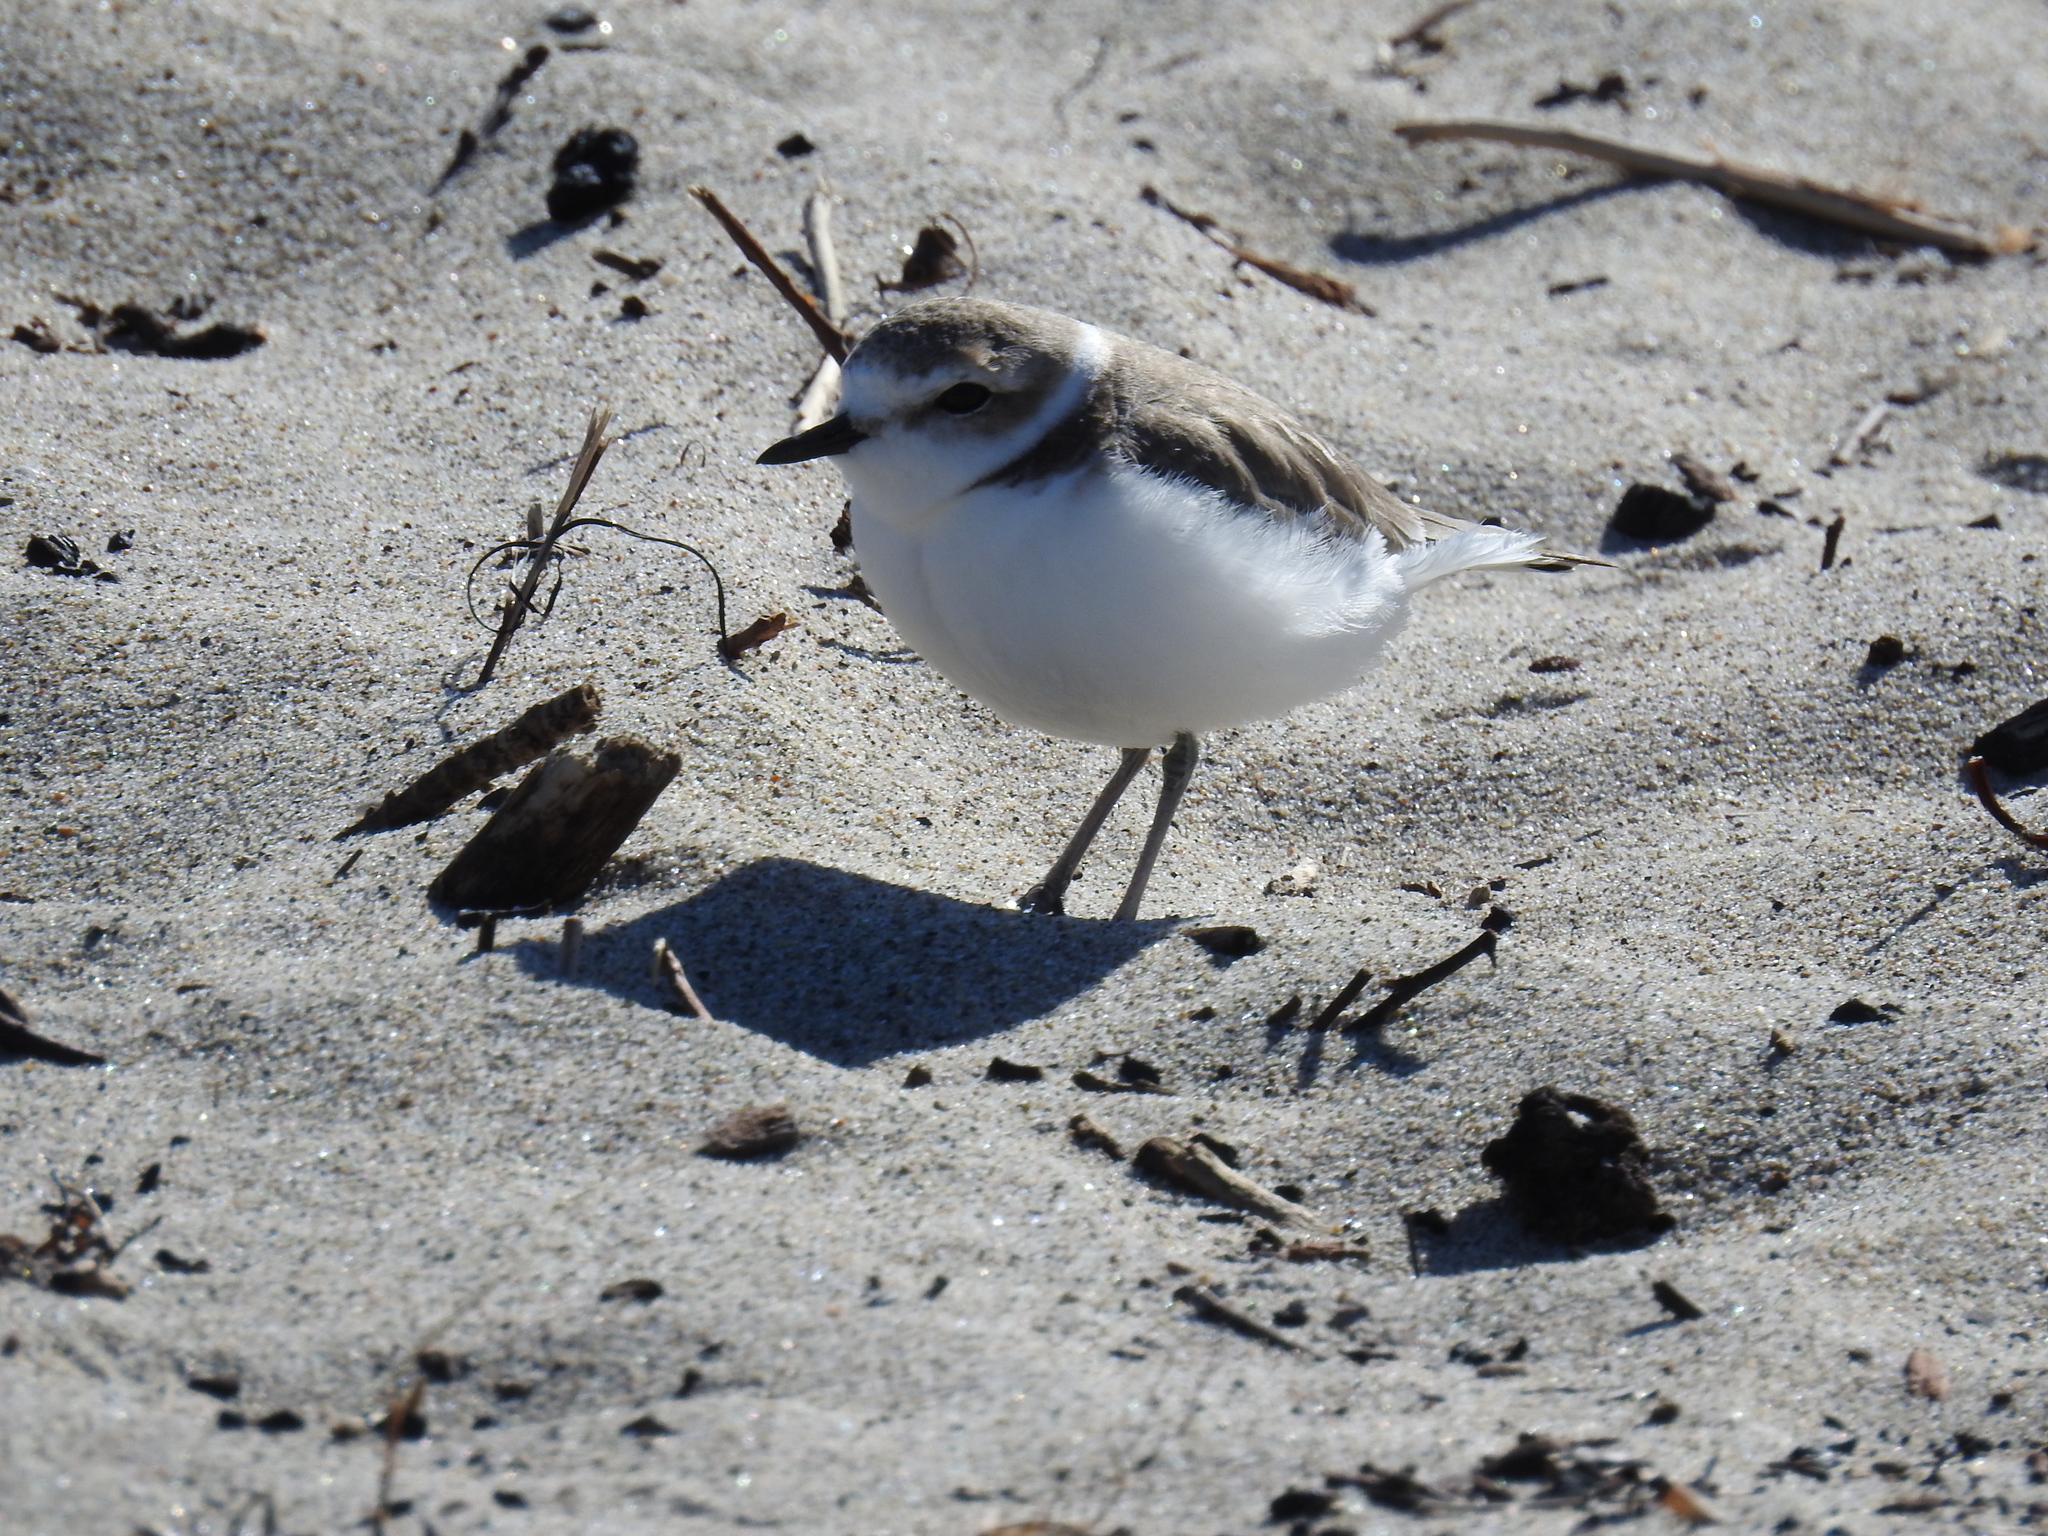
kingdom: Animalia
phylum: Chordata
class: Aves
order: Charadriiformes
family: Charadriidae
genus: Anarhynchus
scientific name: Anarhynchus
